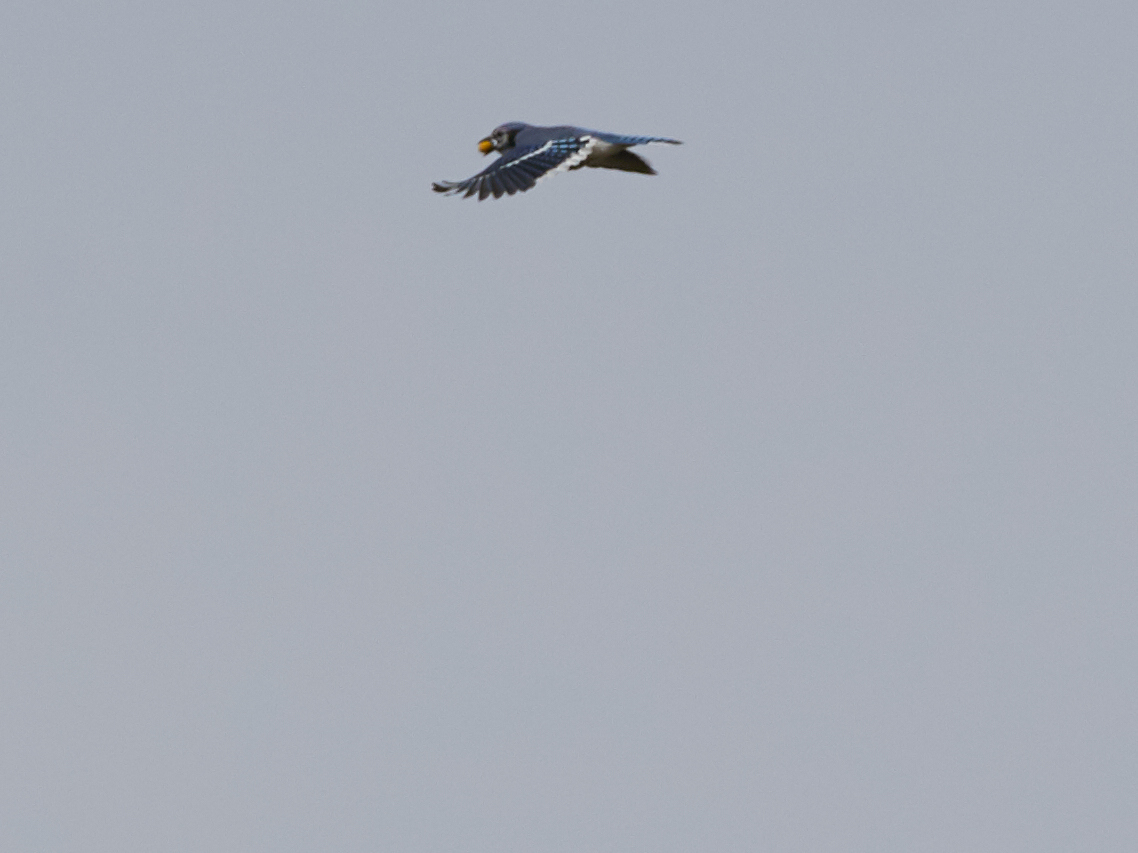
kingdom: Animalia
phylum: Chordata
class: Aves
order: Passeriformes
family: Corvidae
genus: Cyanocitta
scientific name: Cyanocitta cristata
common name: Blue jay
